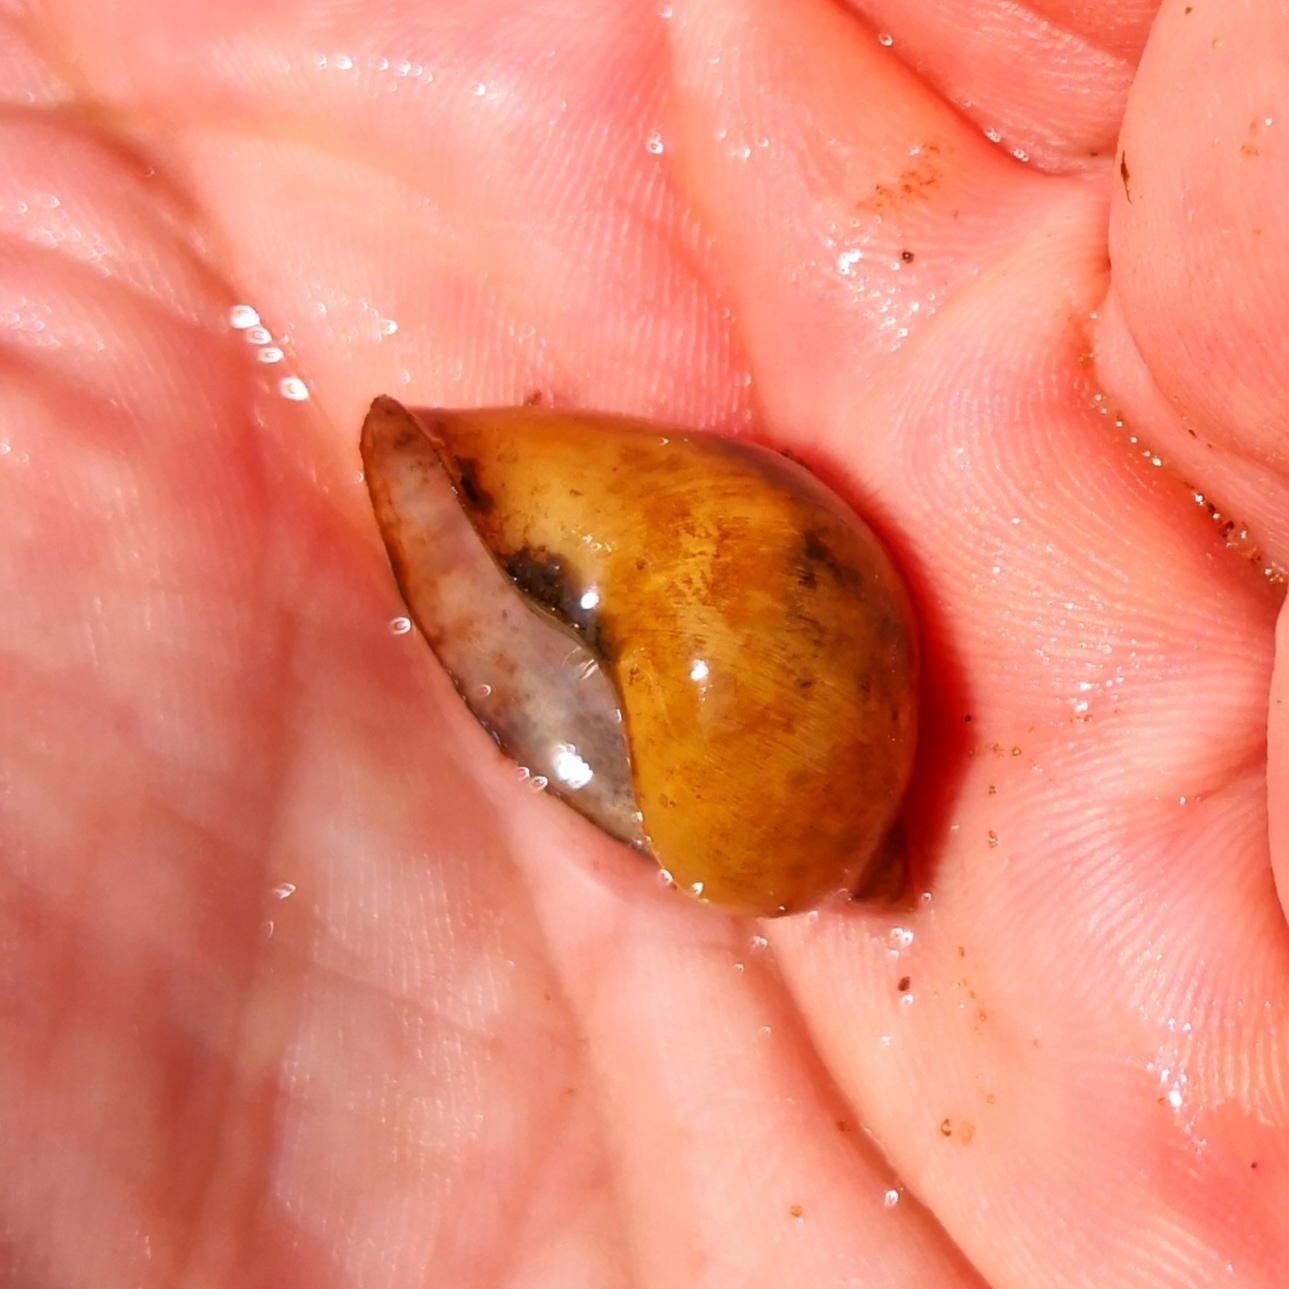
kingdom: Animalia
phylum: Mollusca
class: Gastropoda
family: Lymnaeidae
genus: Radix
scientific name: Radix auricularia
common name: Ear pond snail
